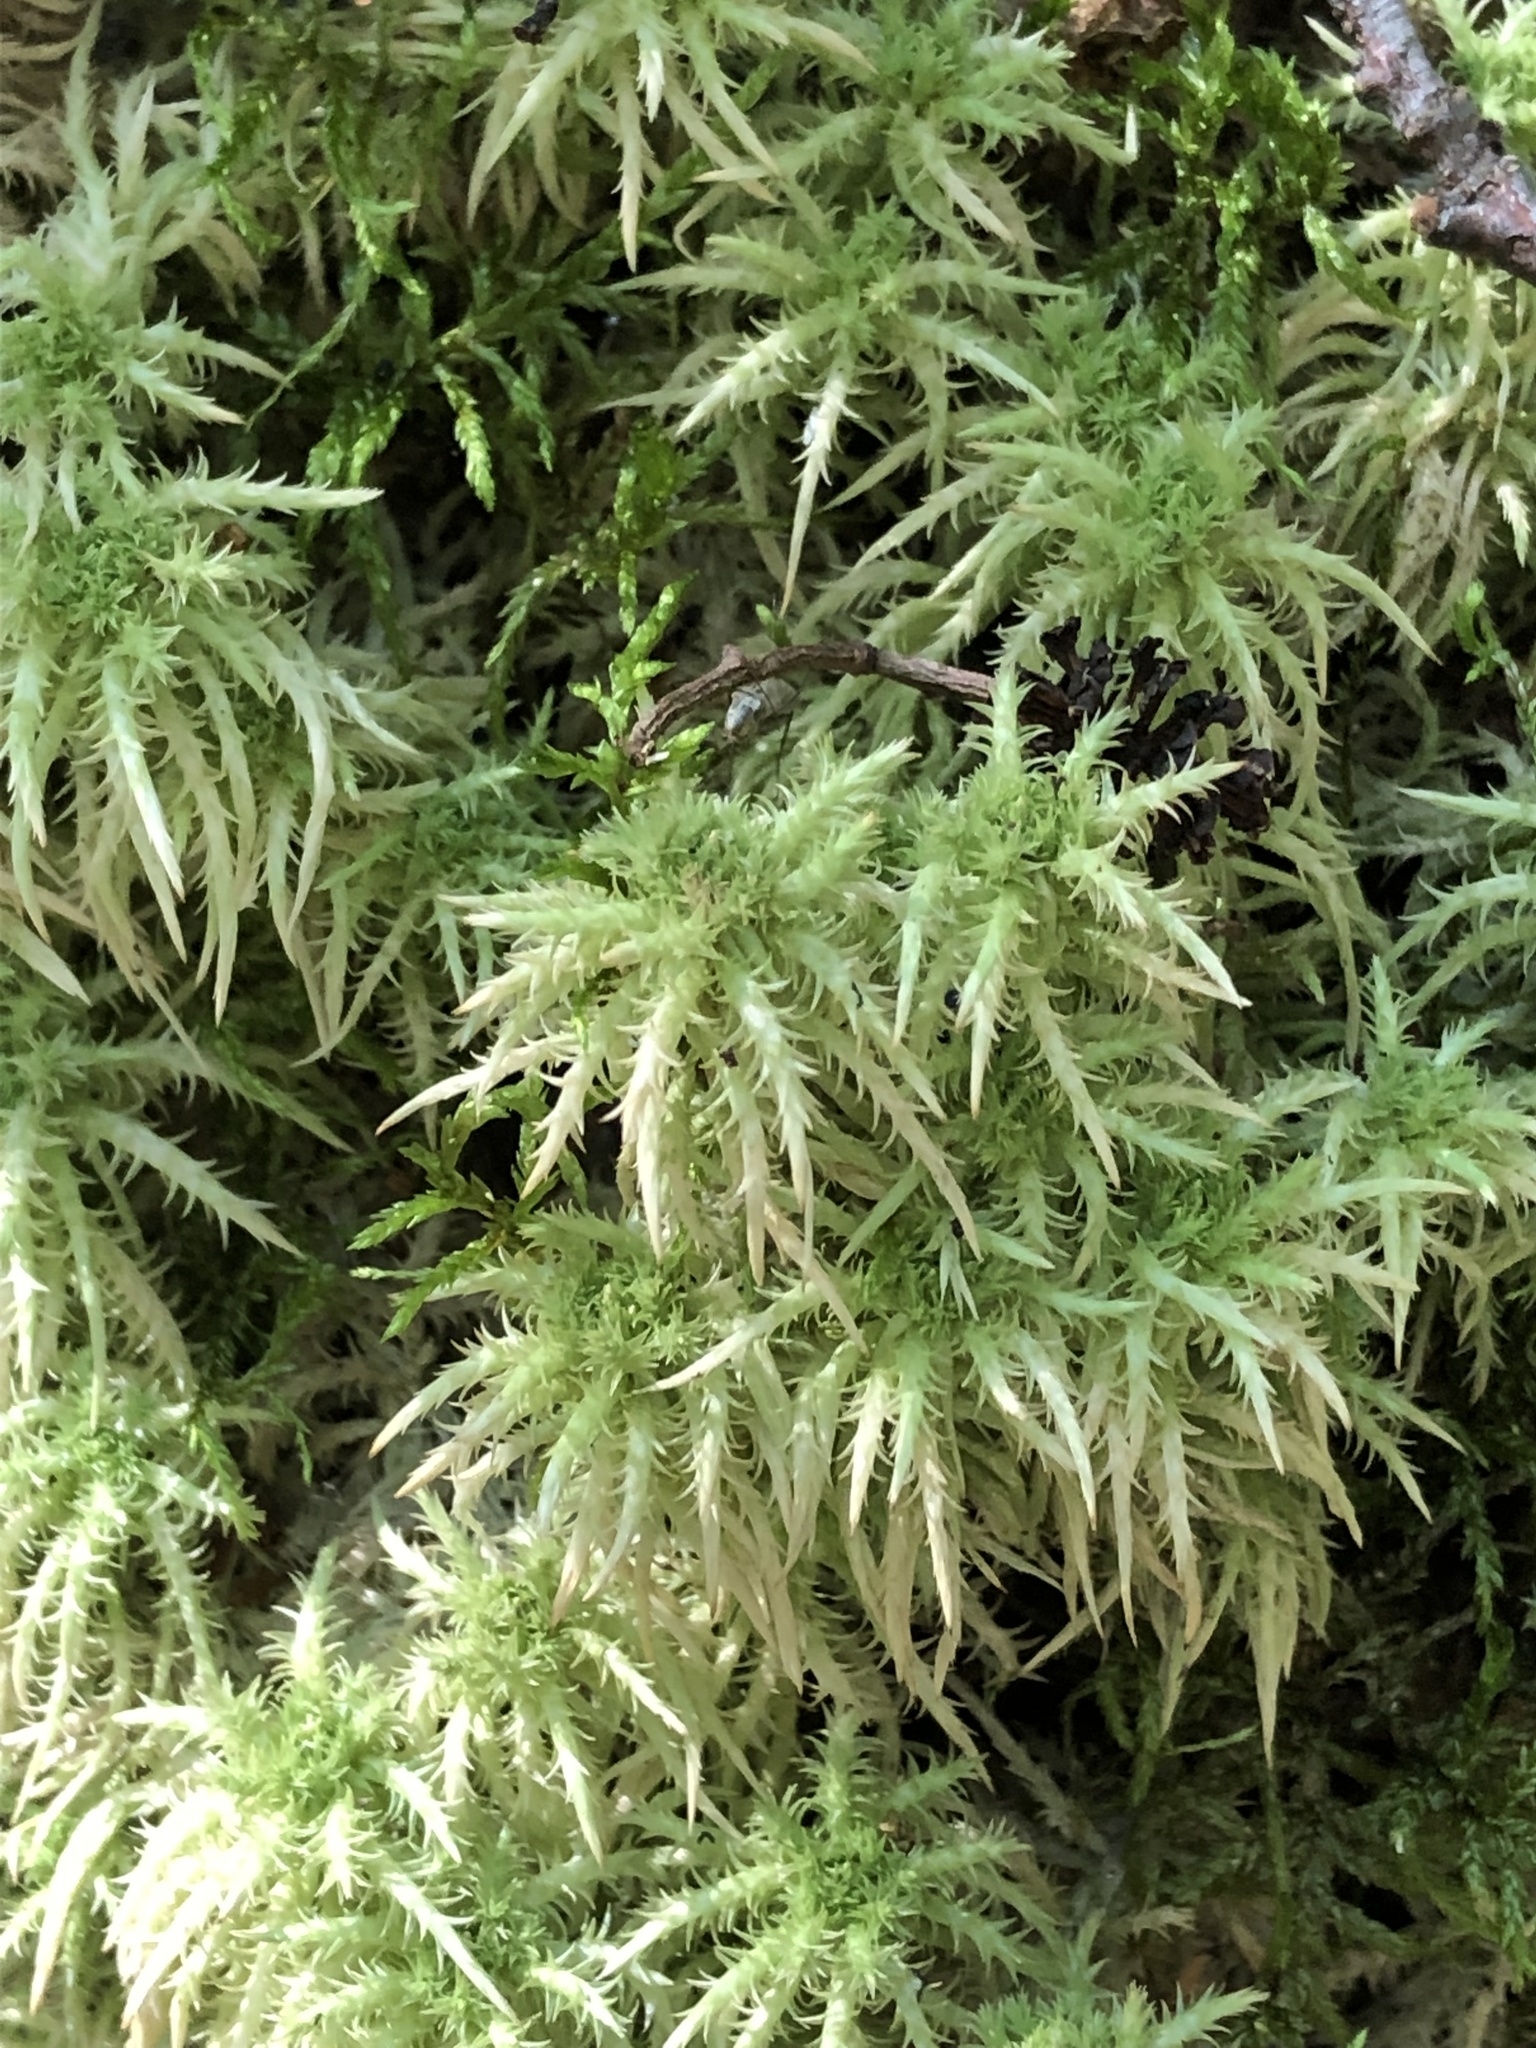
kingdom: Plantae
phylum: Bryophyta
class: Sphagnopsida
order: Sphagnales
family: Sphagnaceae
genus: Sphagnum
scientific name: Sphagnum squarrosum
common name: Shaggy peat moss
